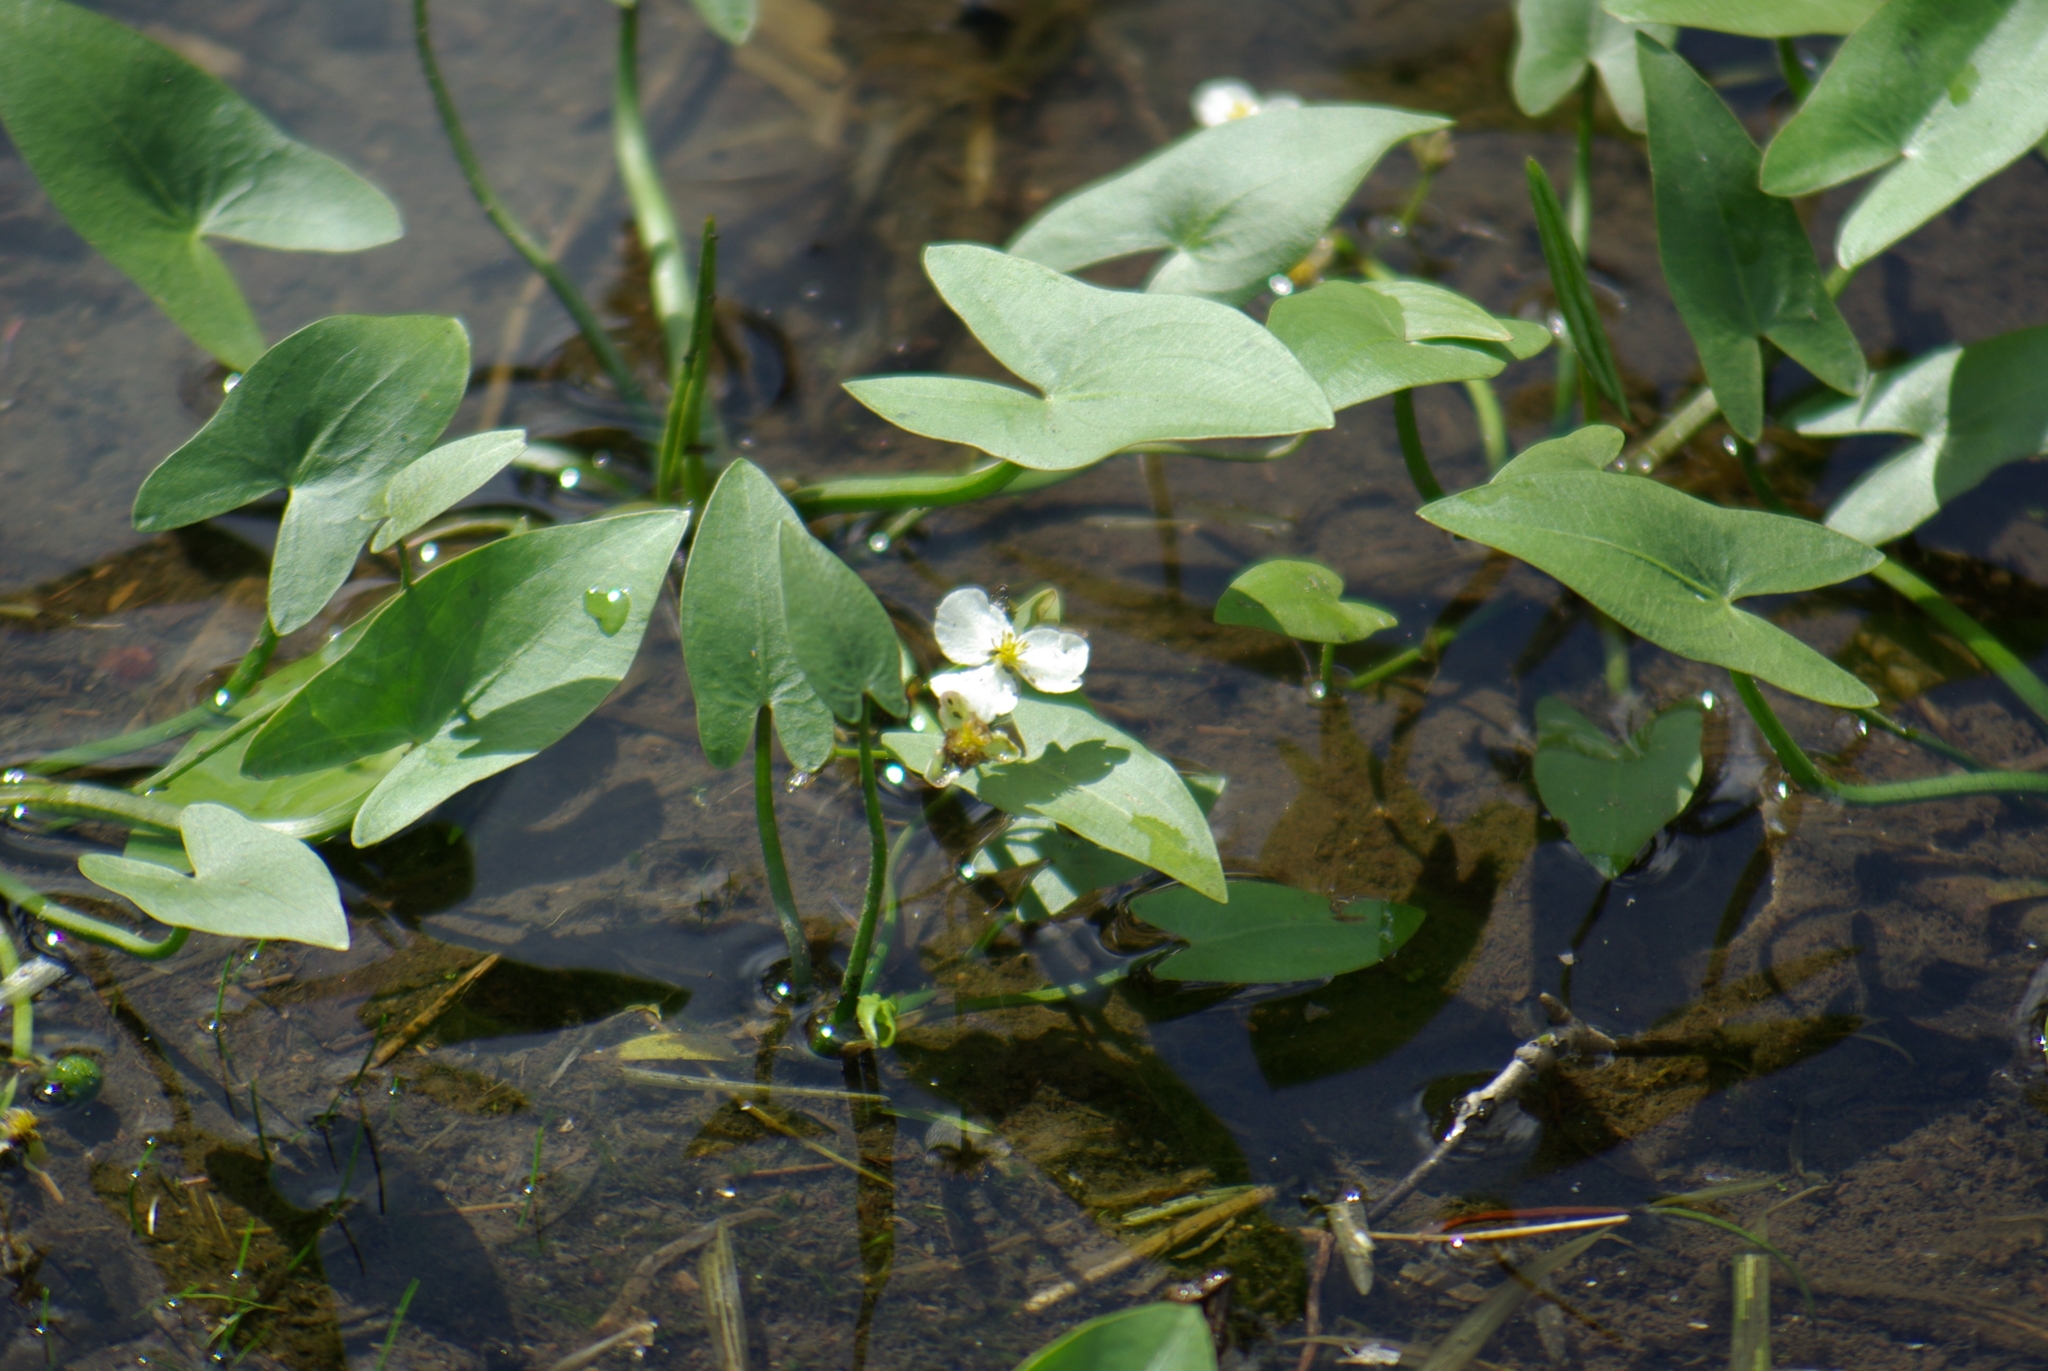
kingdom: Plantae
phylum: Tracheophyta
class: Liliopsida
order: Alismatales
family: Alismataceae
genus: Sagittaria
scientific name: Sagittaria cuneata
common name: Northern arrowhead
